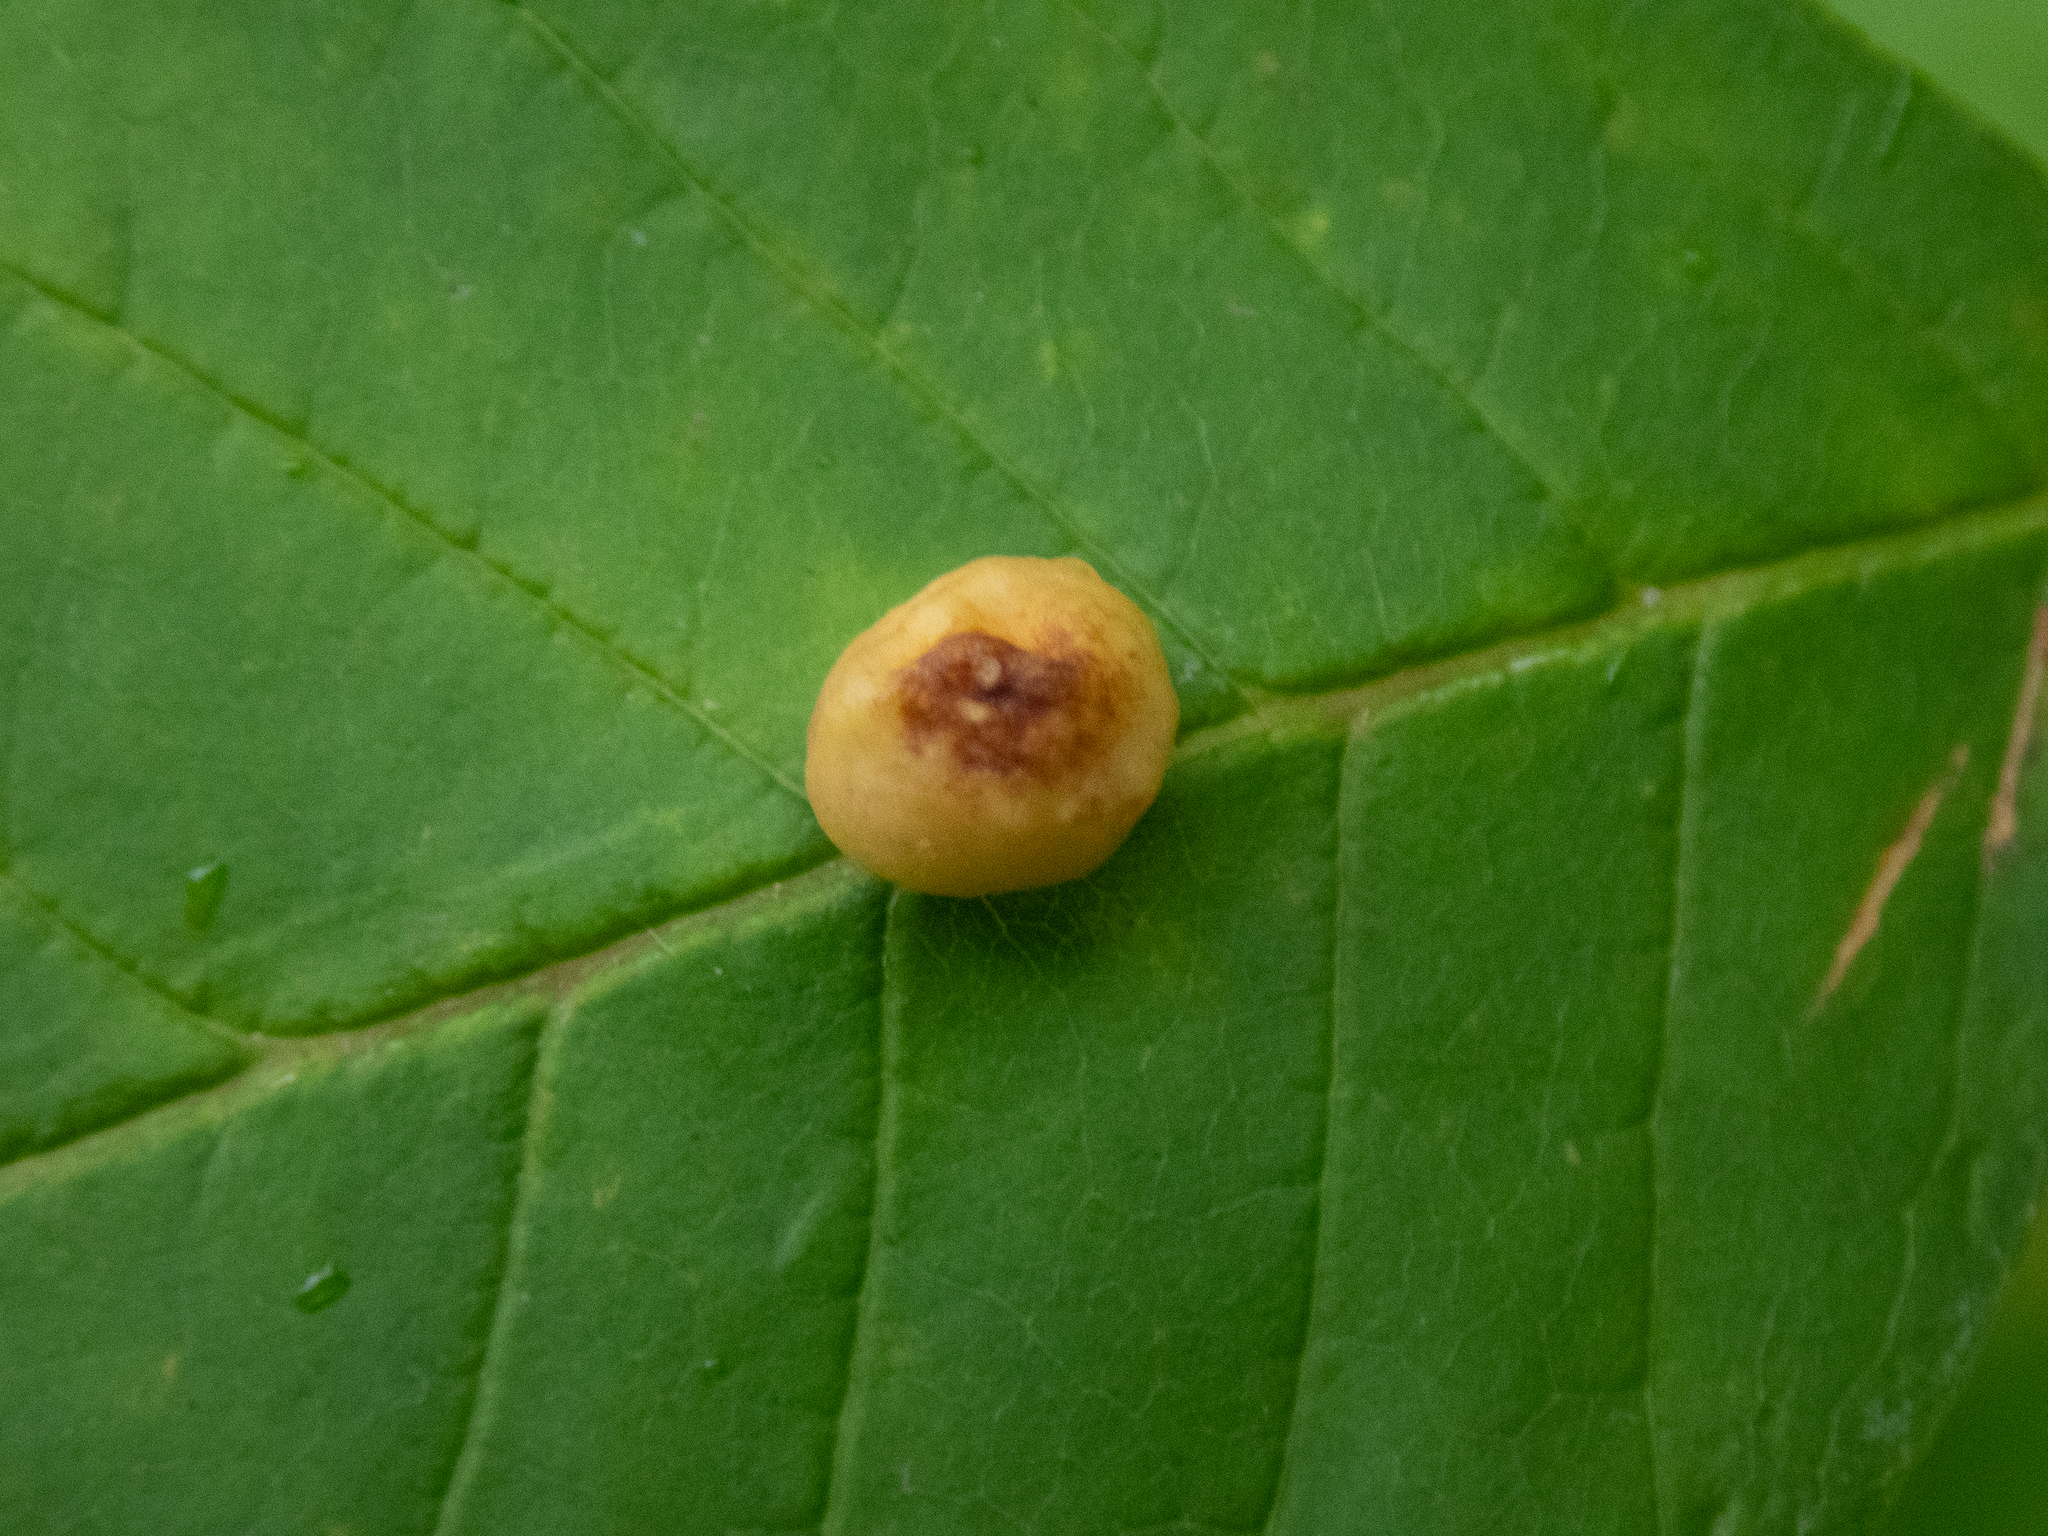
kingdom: Animalia
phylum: Arthropoda
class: Insecta
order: Diptera
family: Cecidomyiidae
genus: Dasineura
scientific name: Dasineura pellex
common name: Ash bullet gall midge
